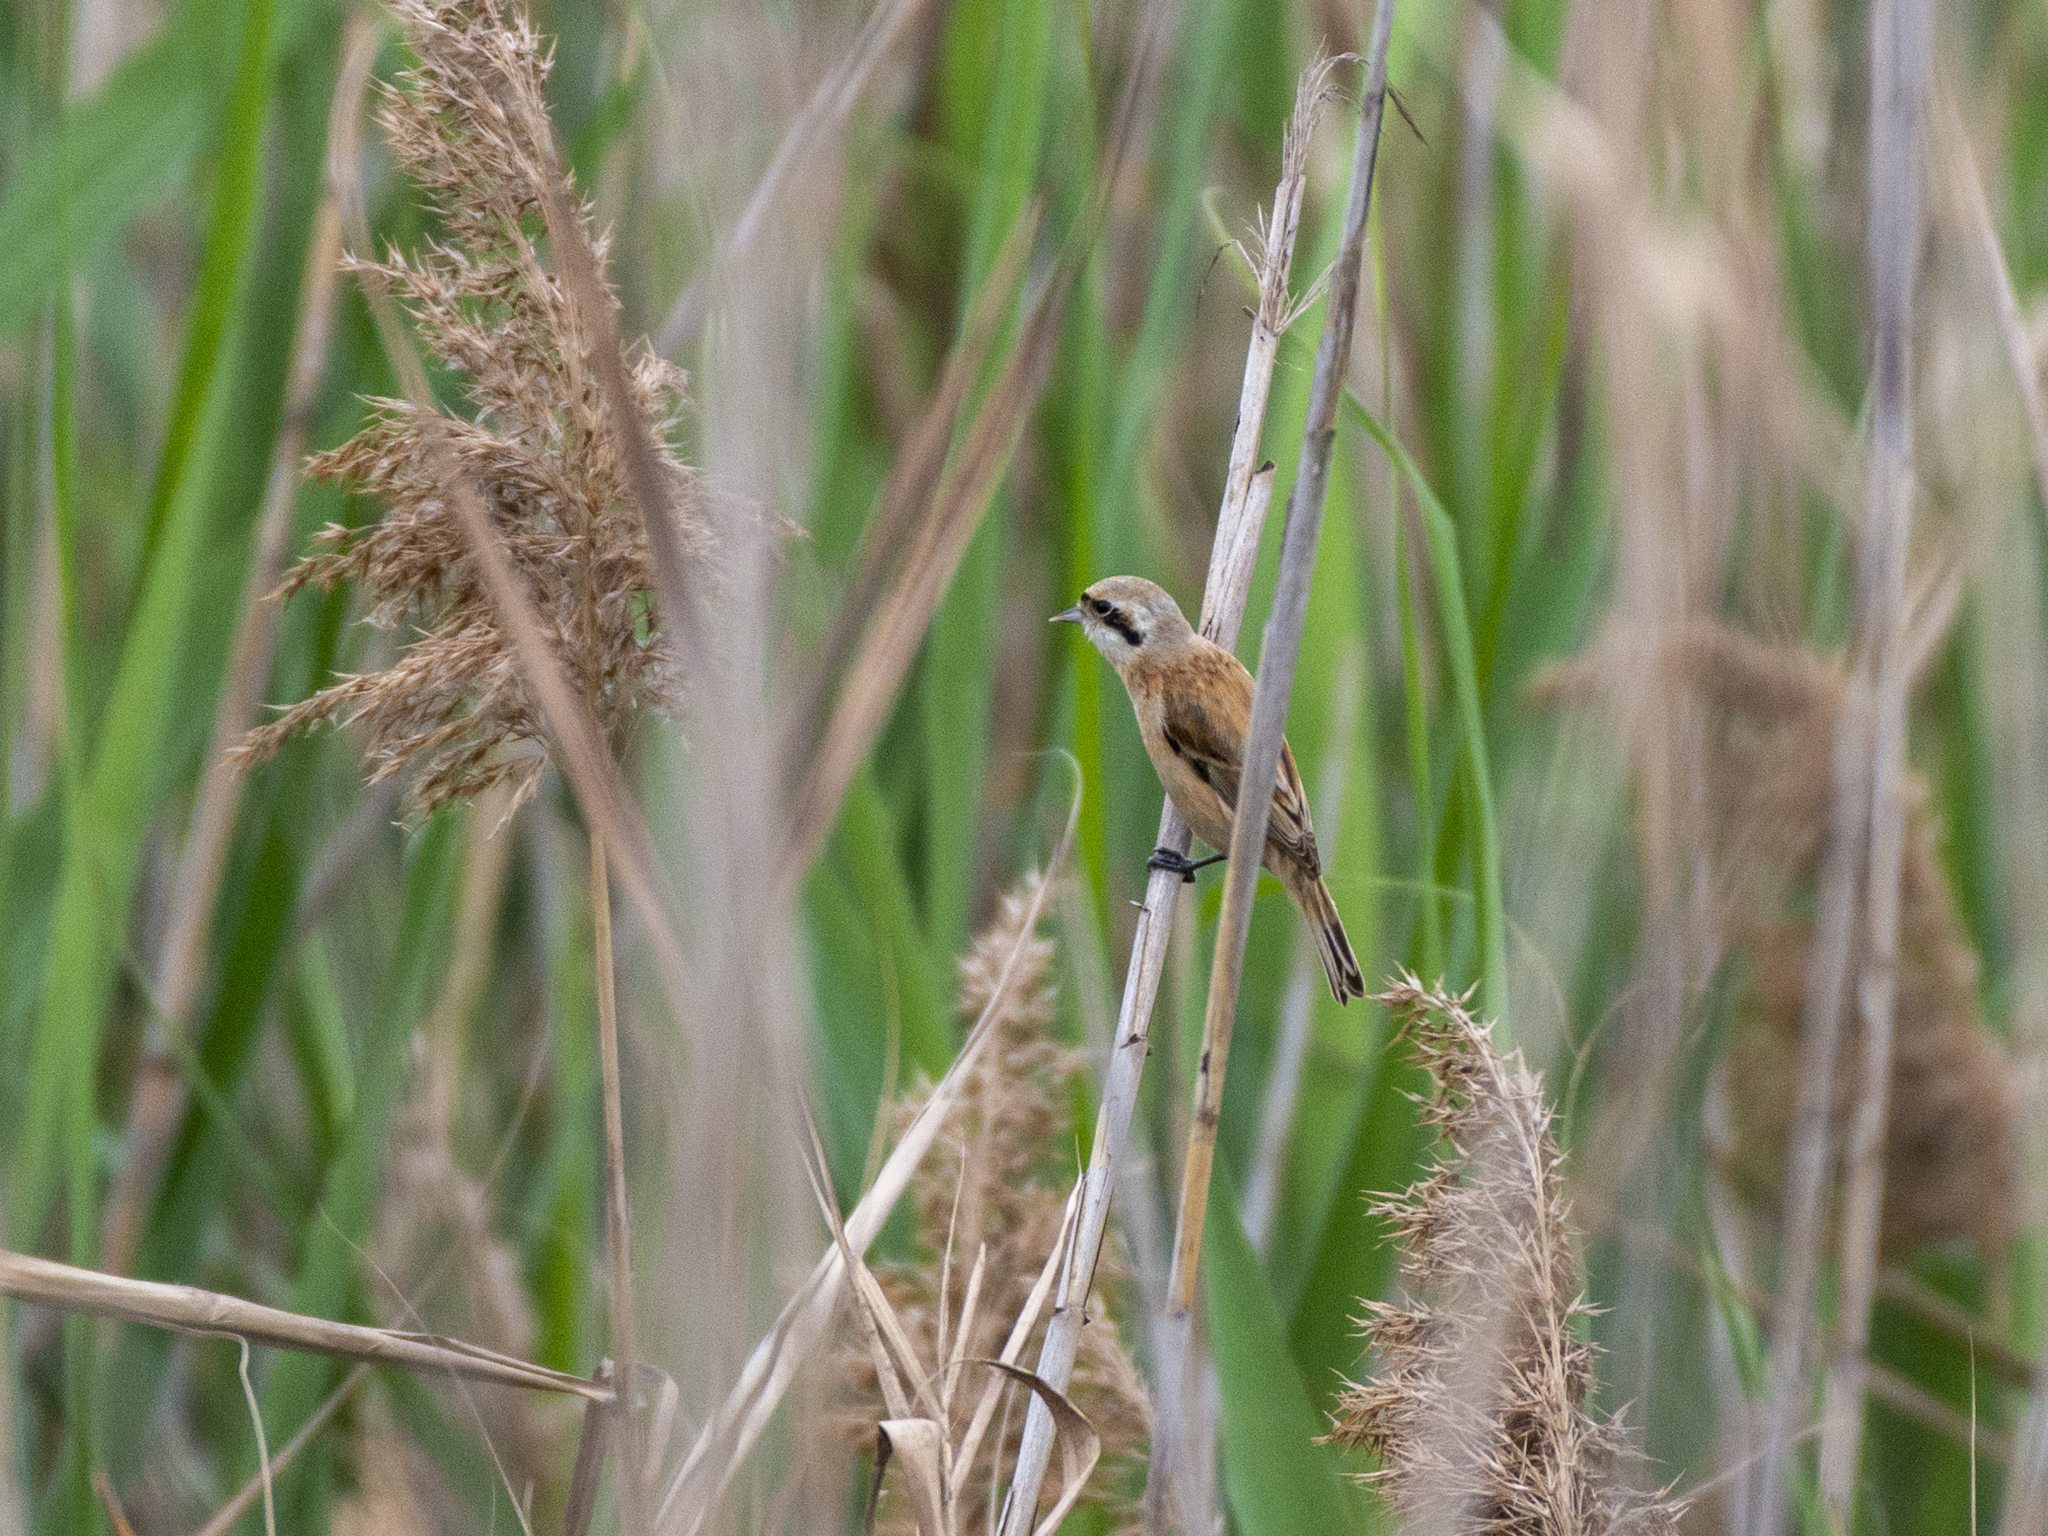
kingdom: Animalia
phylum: Chordata
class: Aves
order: Passeriformes
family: Remizidae
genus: Remiz
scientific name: Remiz consobrinus
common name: Chinese penduline tit
